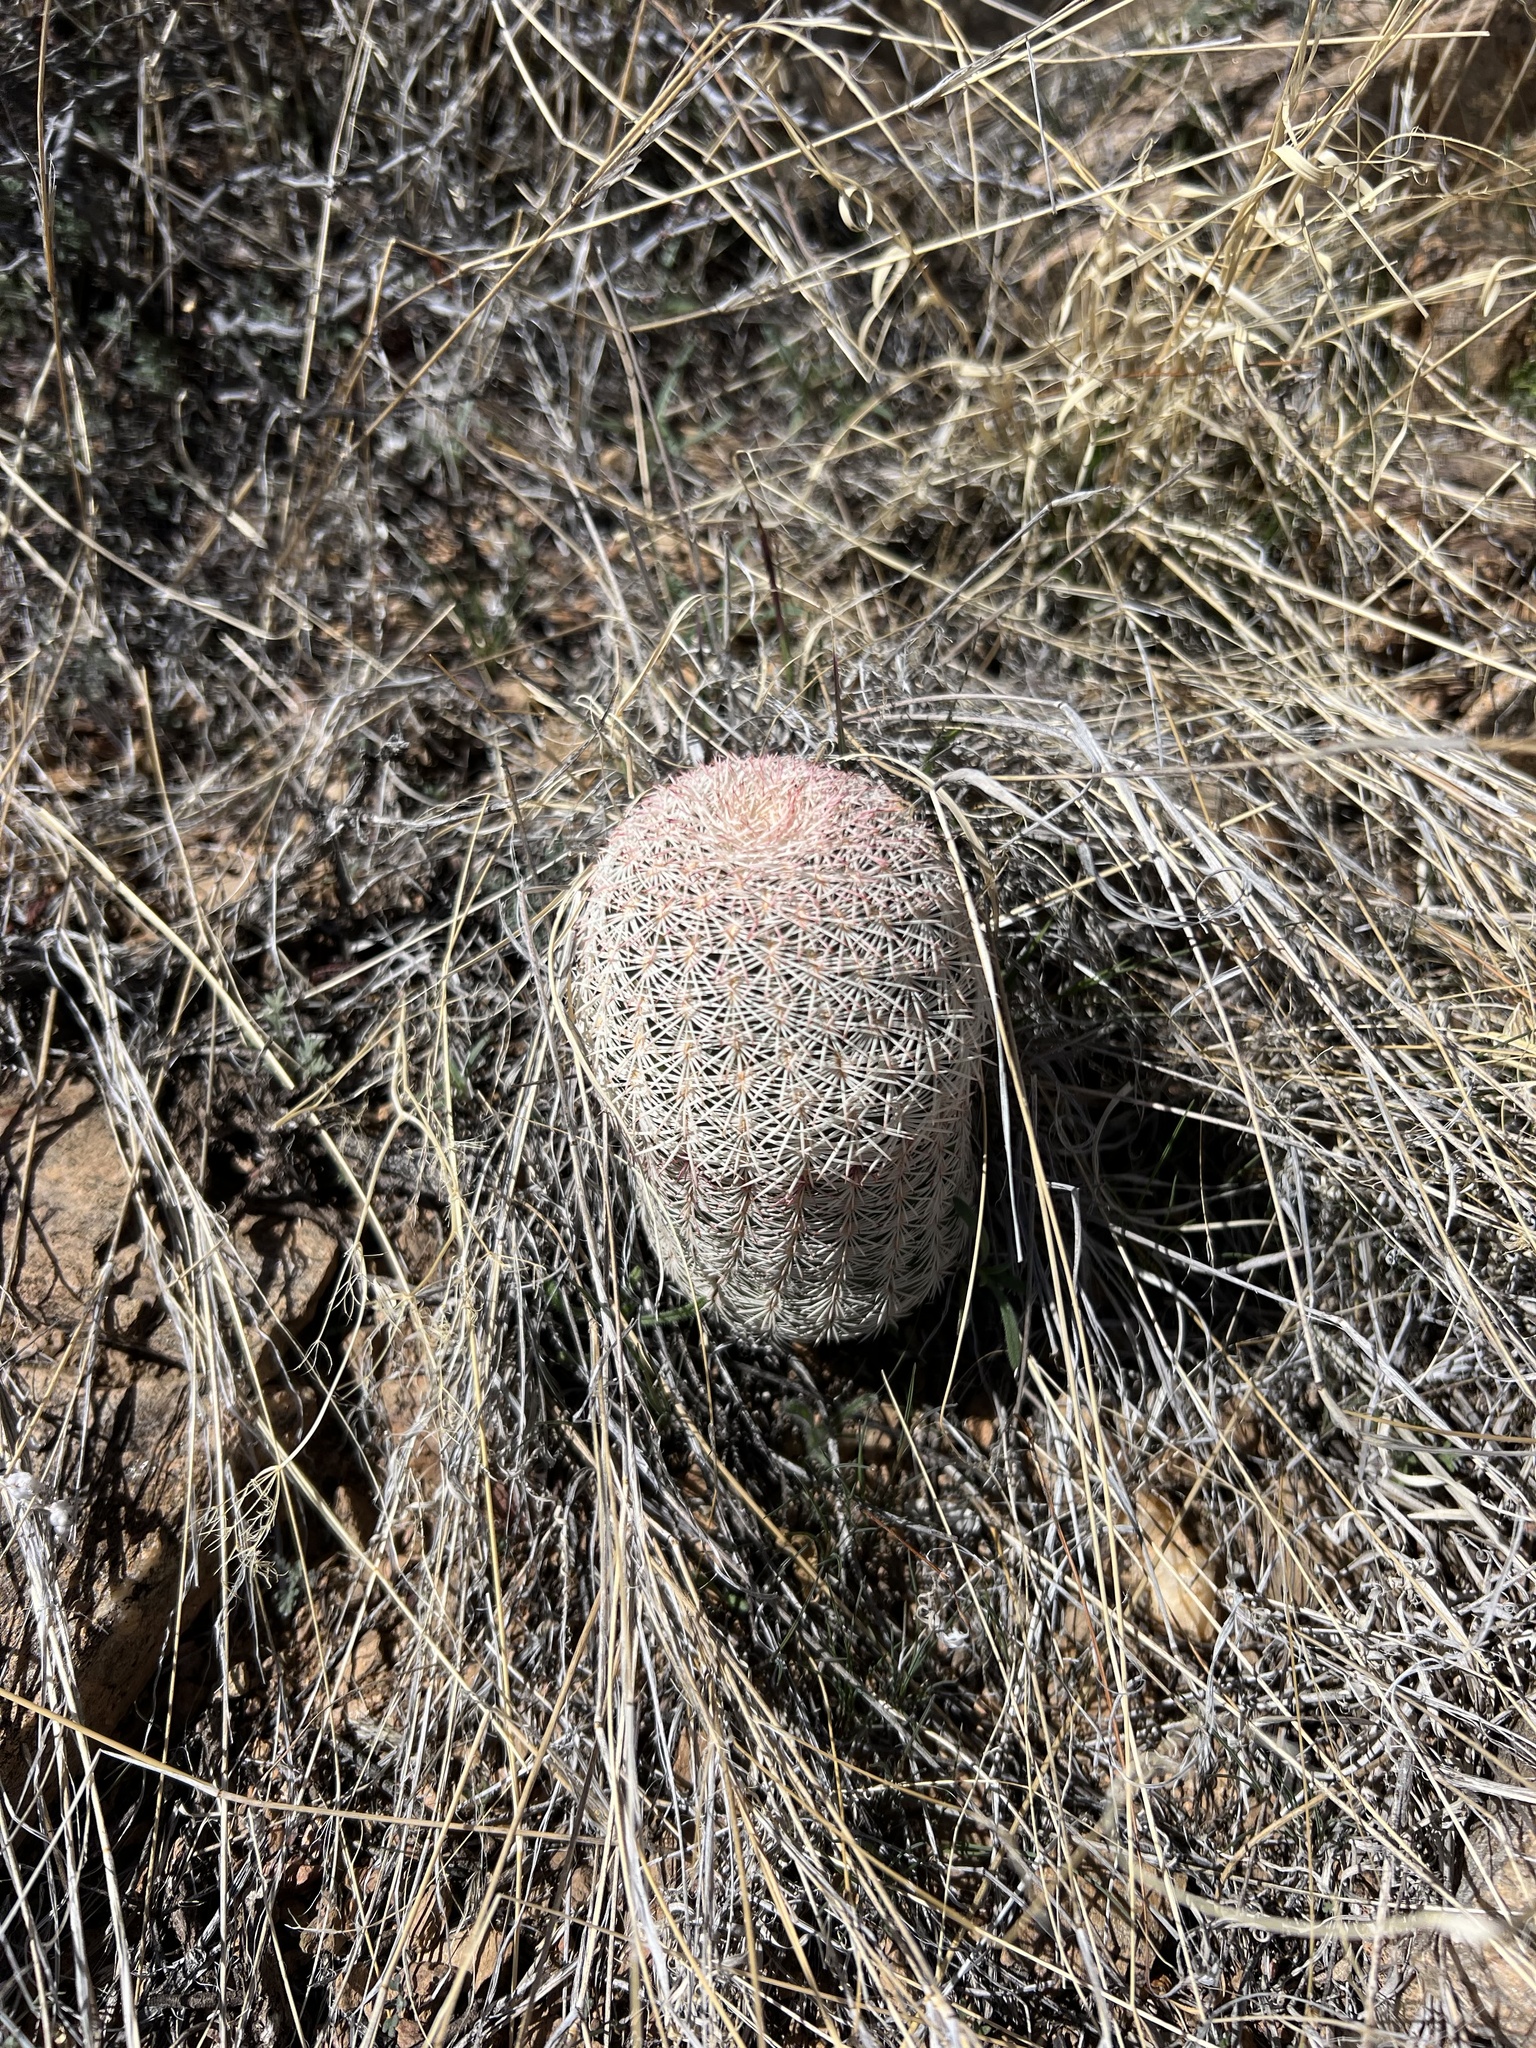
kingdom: Plantae
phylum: Tracheophyta
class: Magnoliopsida
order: Caryophyllales
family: Cactaceae
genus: Echinocereus
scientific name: Echinocereus rigidissimus
